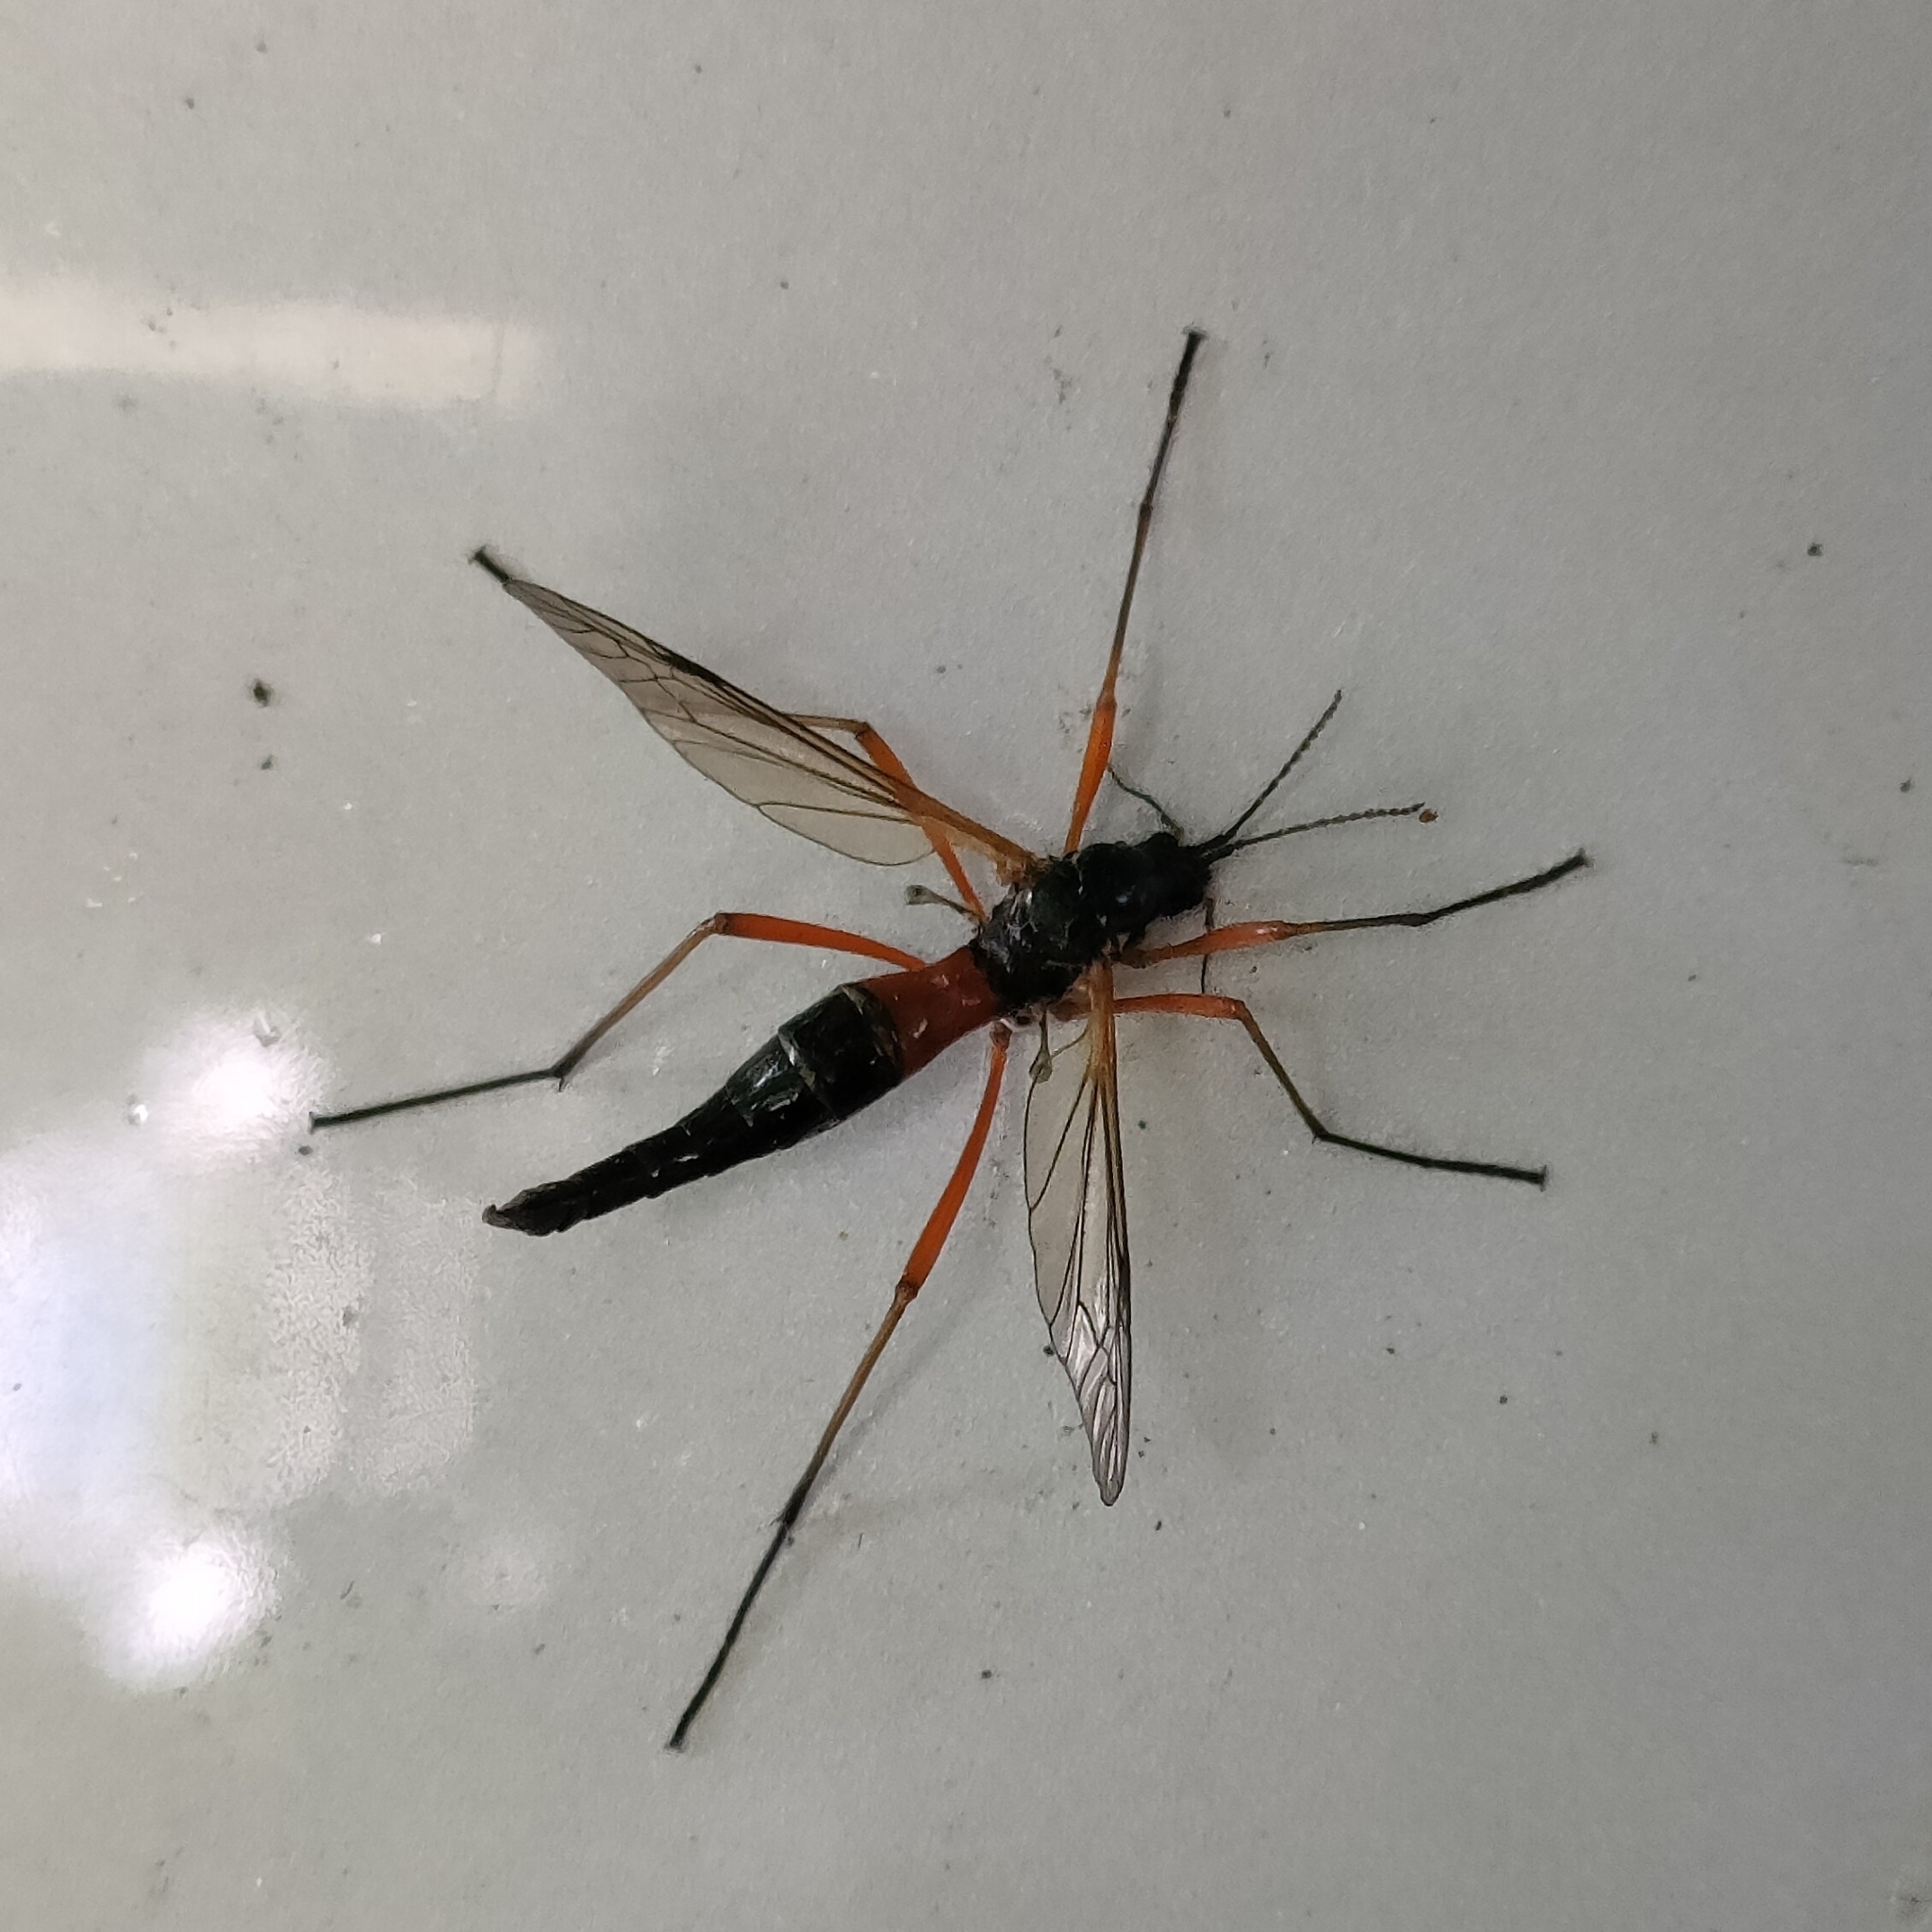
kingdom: Animalia
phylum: Arthropoda
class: Insecta
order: Diptera
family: Tipulidae
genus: Tanyptera
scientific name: Tanyptera atrata
